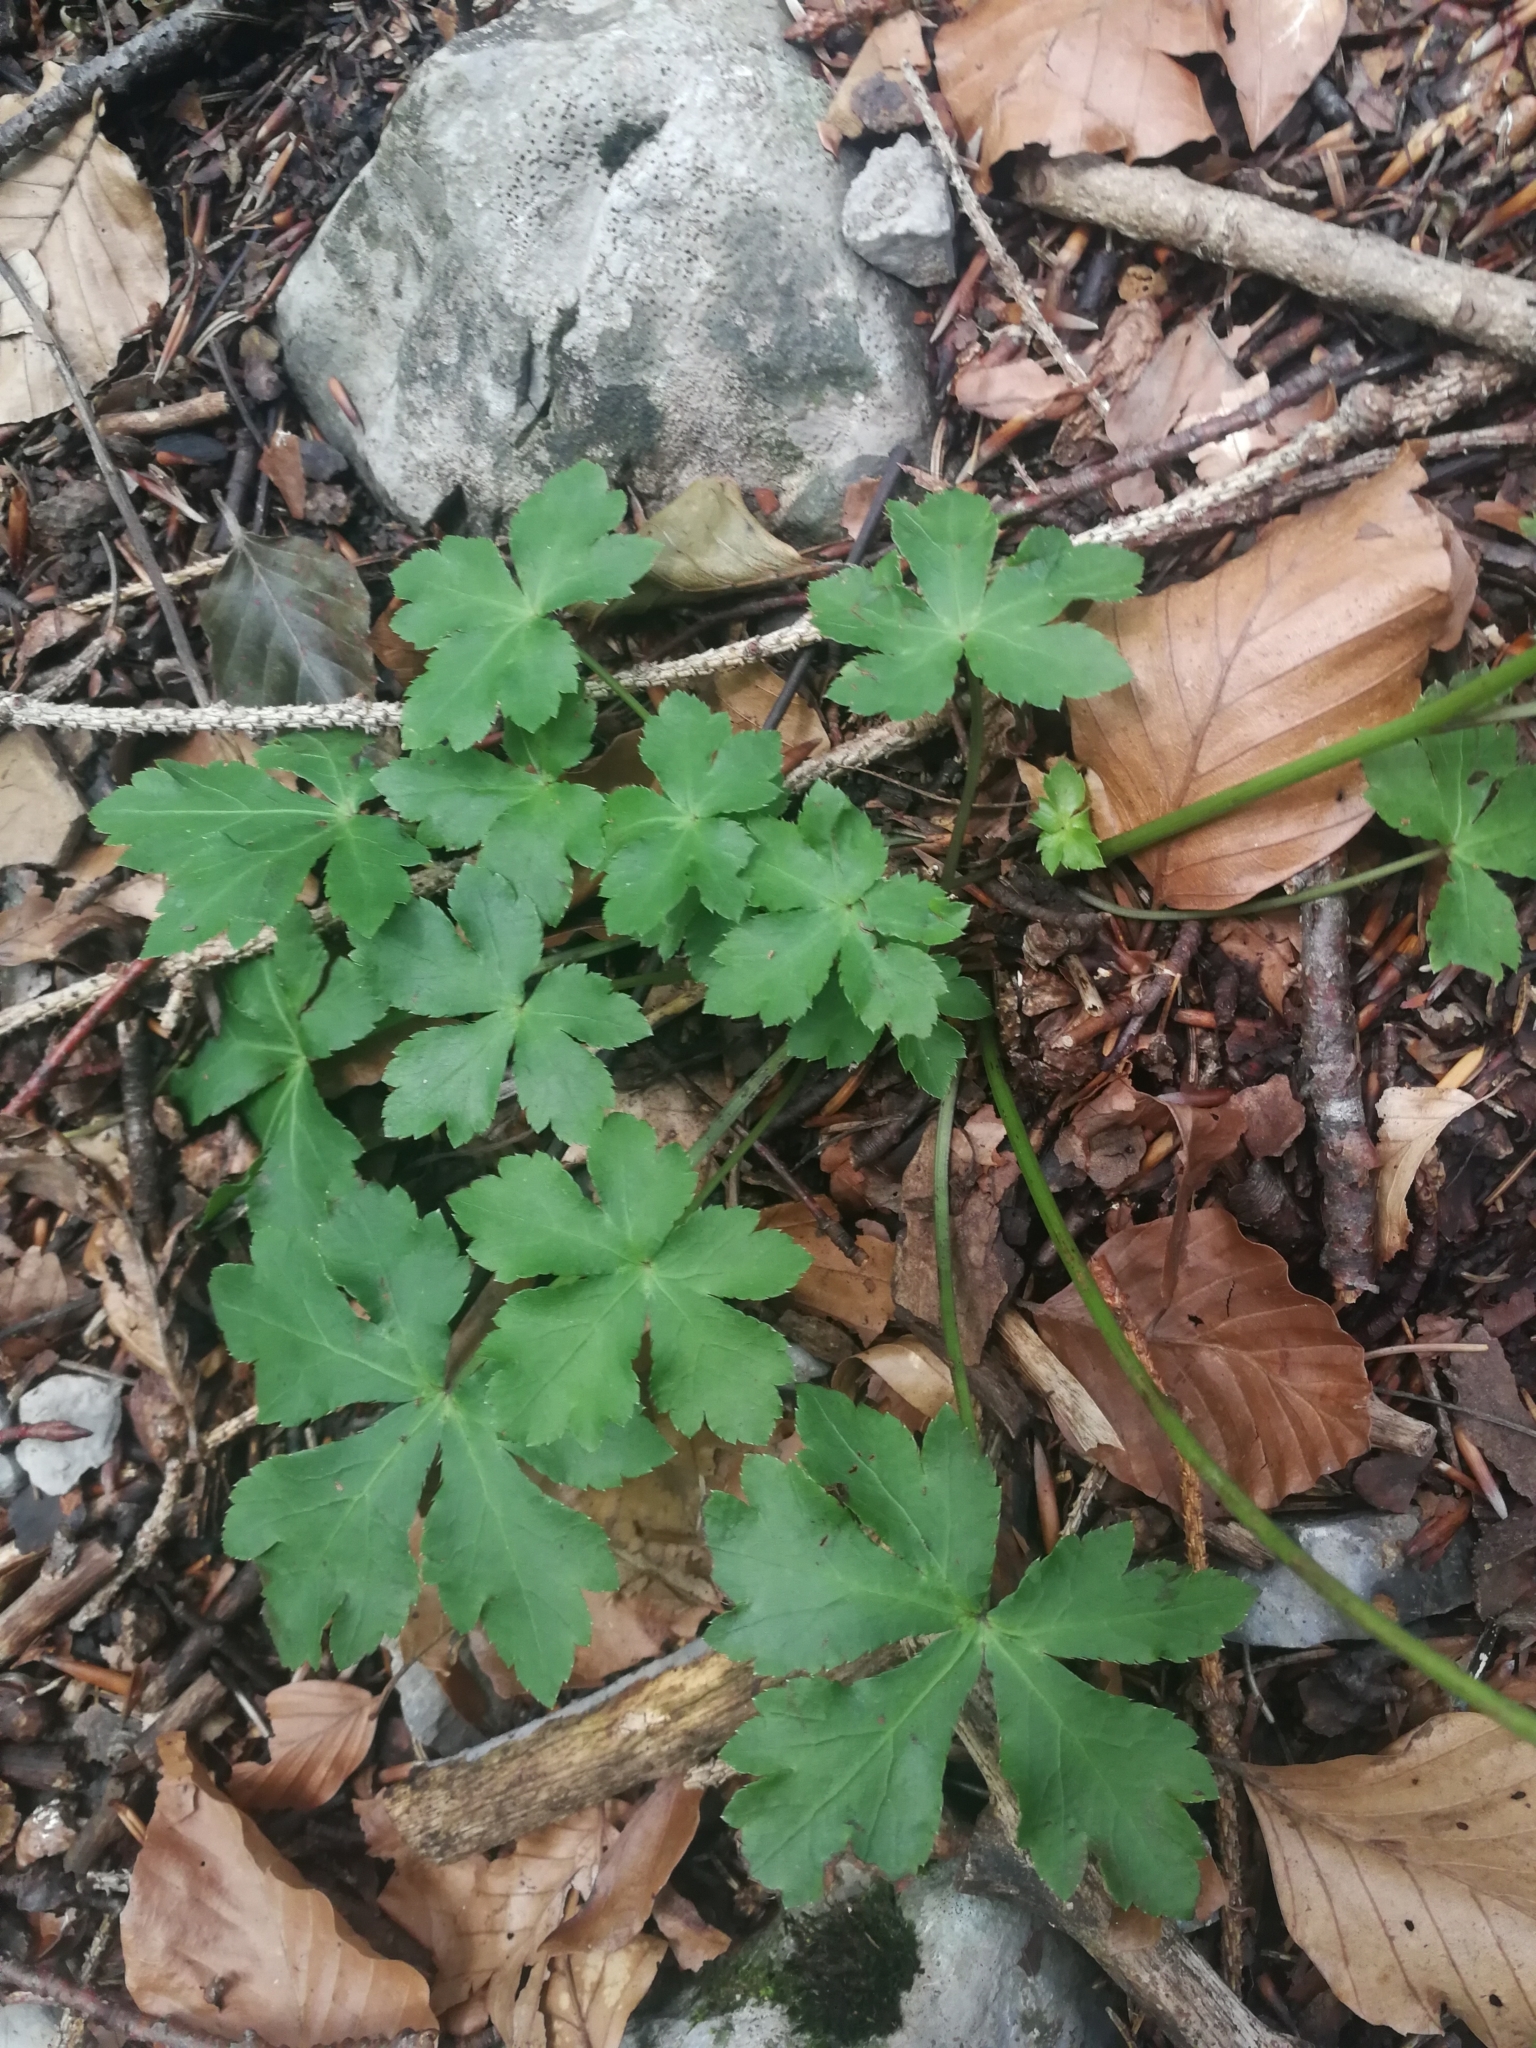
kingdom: Plantae
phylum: Tracheophyta
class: Magnoliopsida
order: Apiales
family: Apiaceae
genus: Sanicula
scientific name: Sanicula europaea
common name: Sanicle
